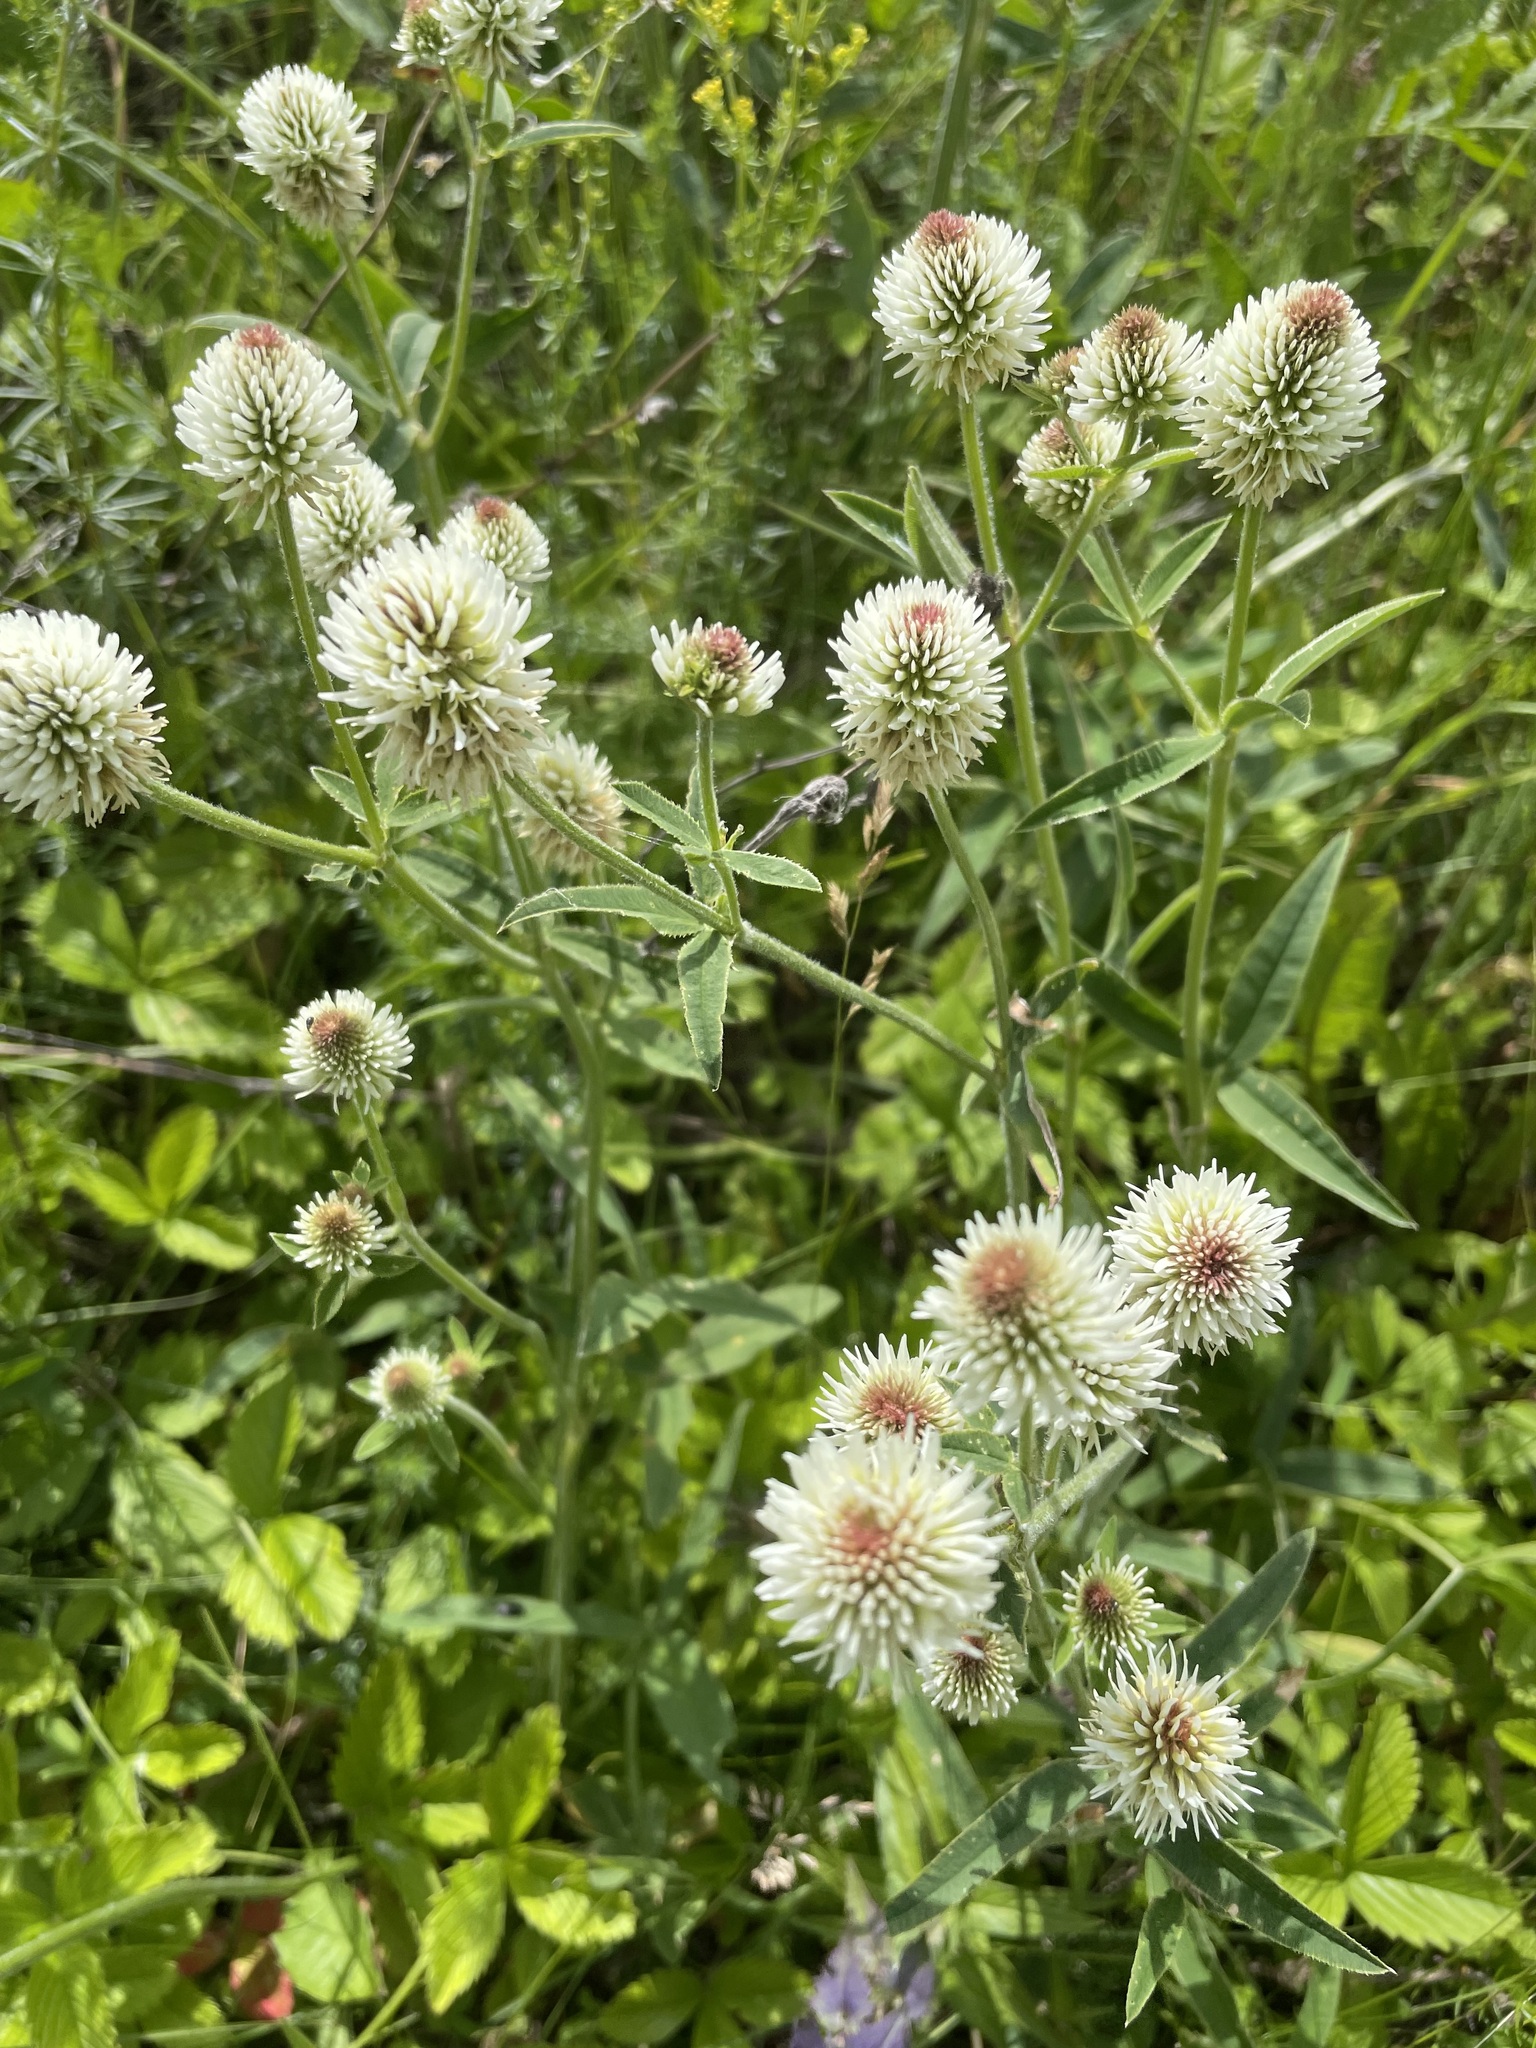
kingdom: Plantae
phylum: Tracheophyta
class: Magnoliopsida
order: Fabales
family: Fabaceae
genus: Trifolium
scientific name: Trifolium montanum
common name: Mountain clover
